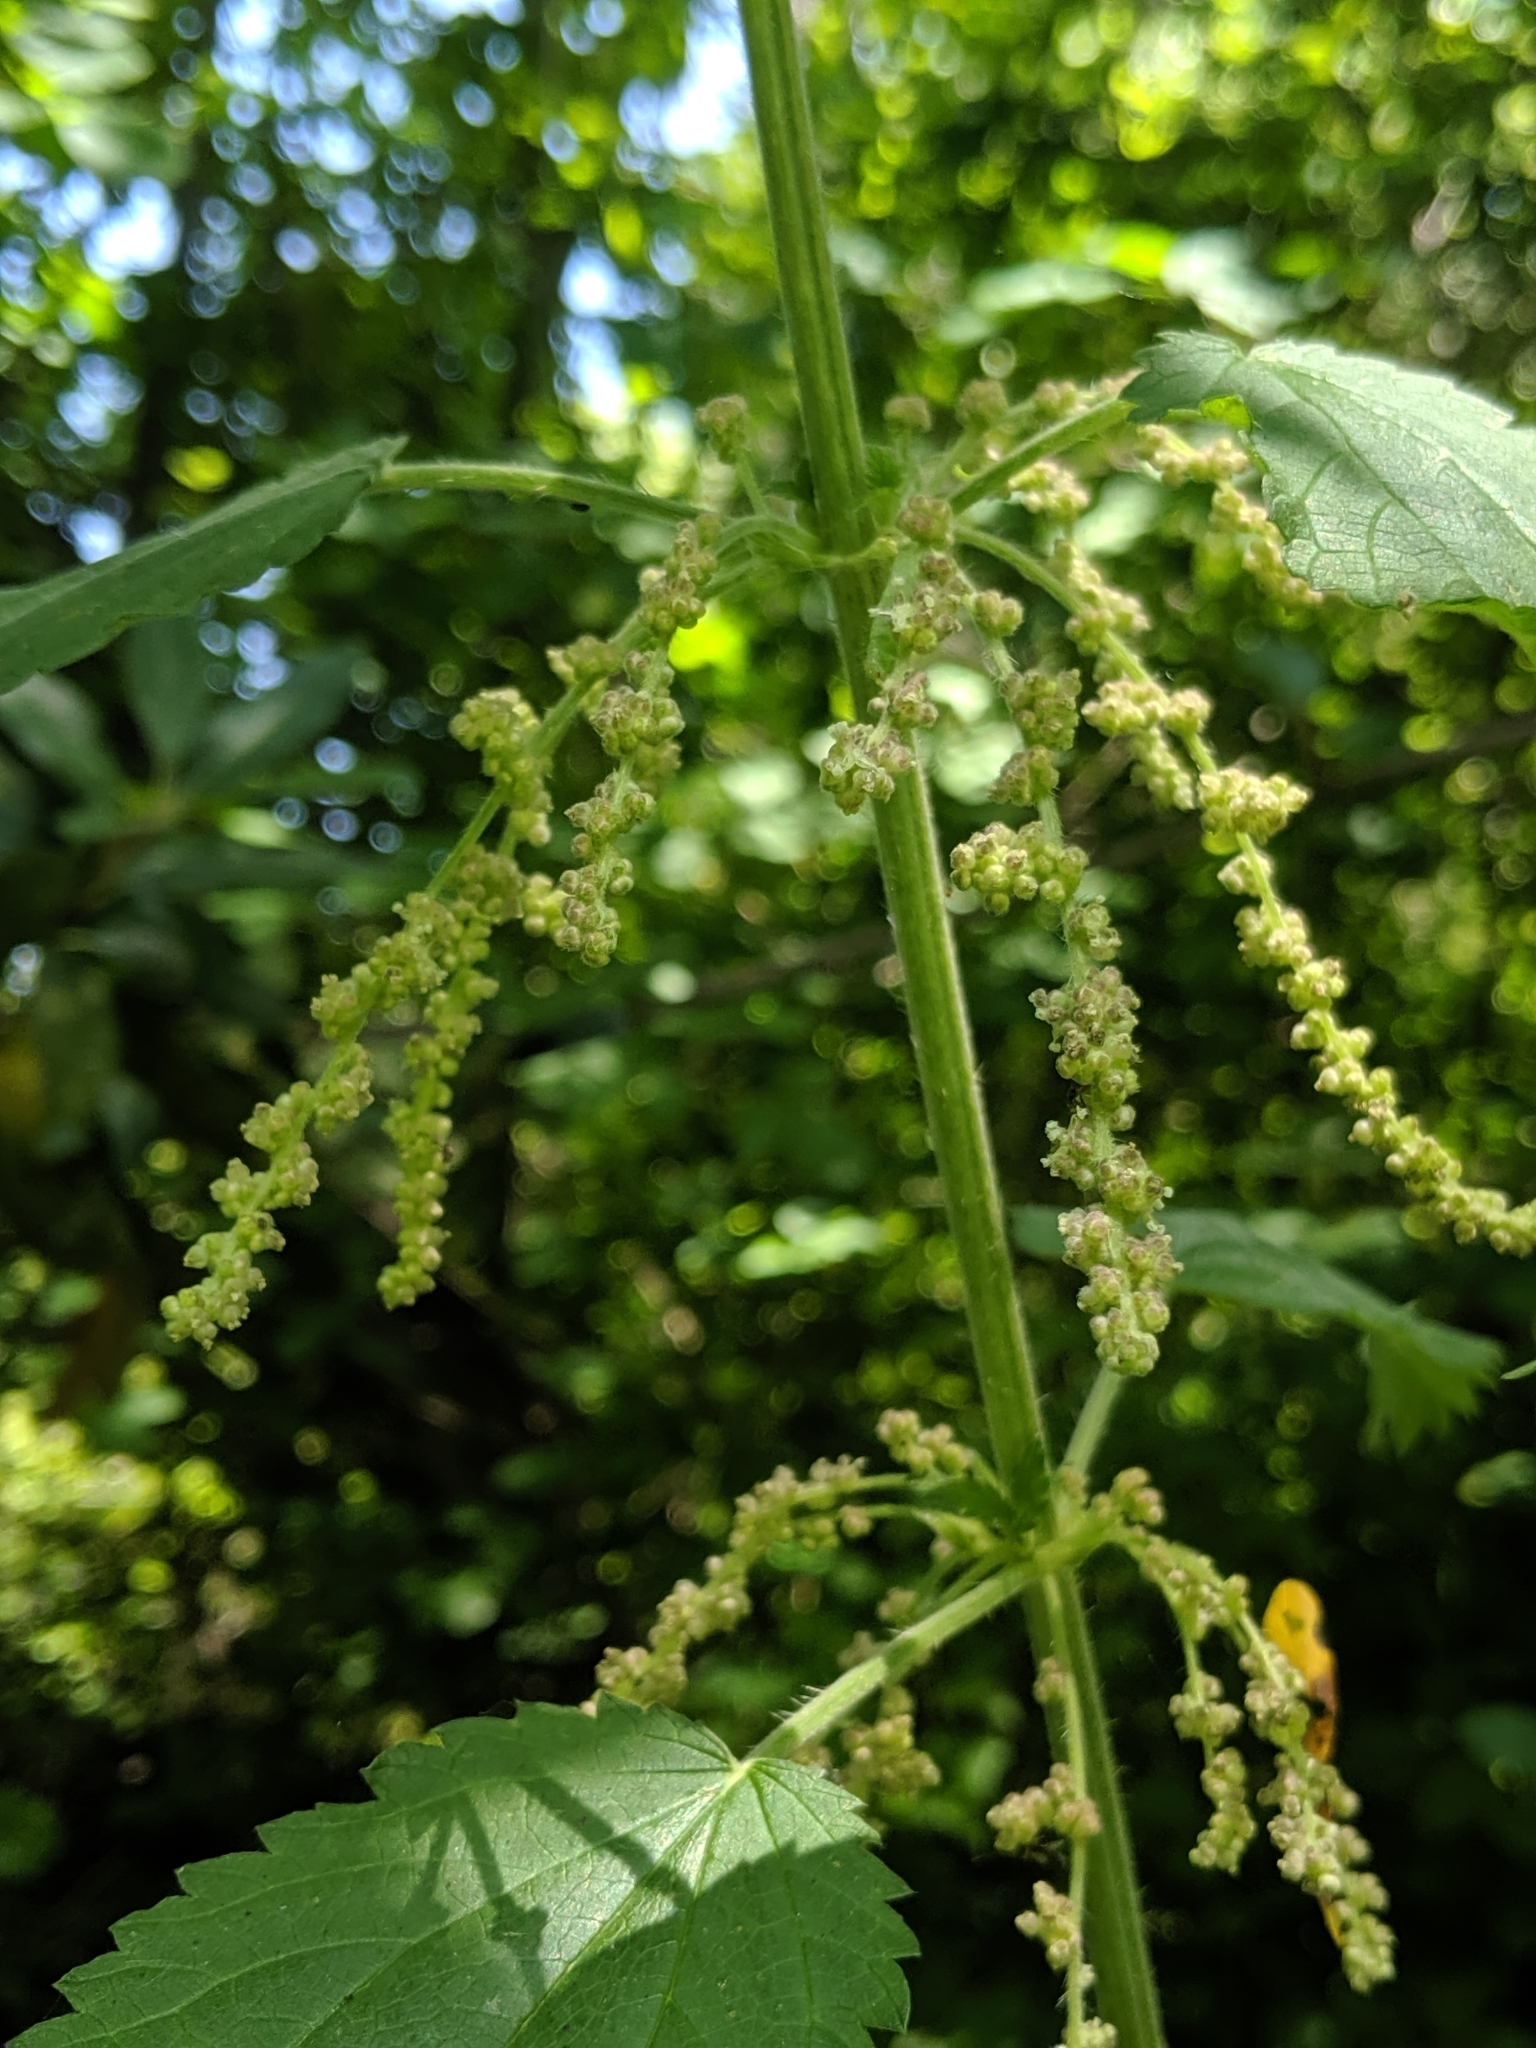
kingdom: Plantae
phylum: Tracheophyta
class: Magnoliopsida
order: Rosales
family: Urticaceae
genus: Urtica
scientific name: Urtica dioica
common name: Common nettle
